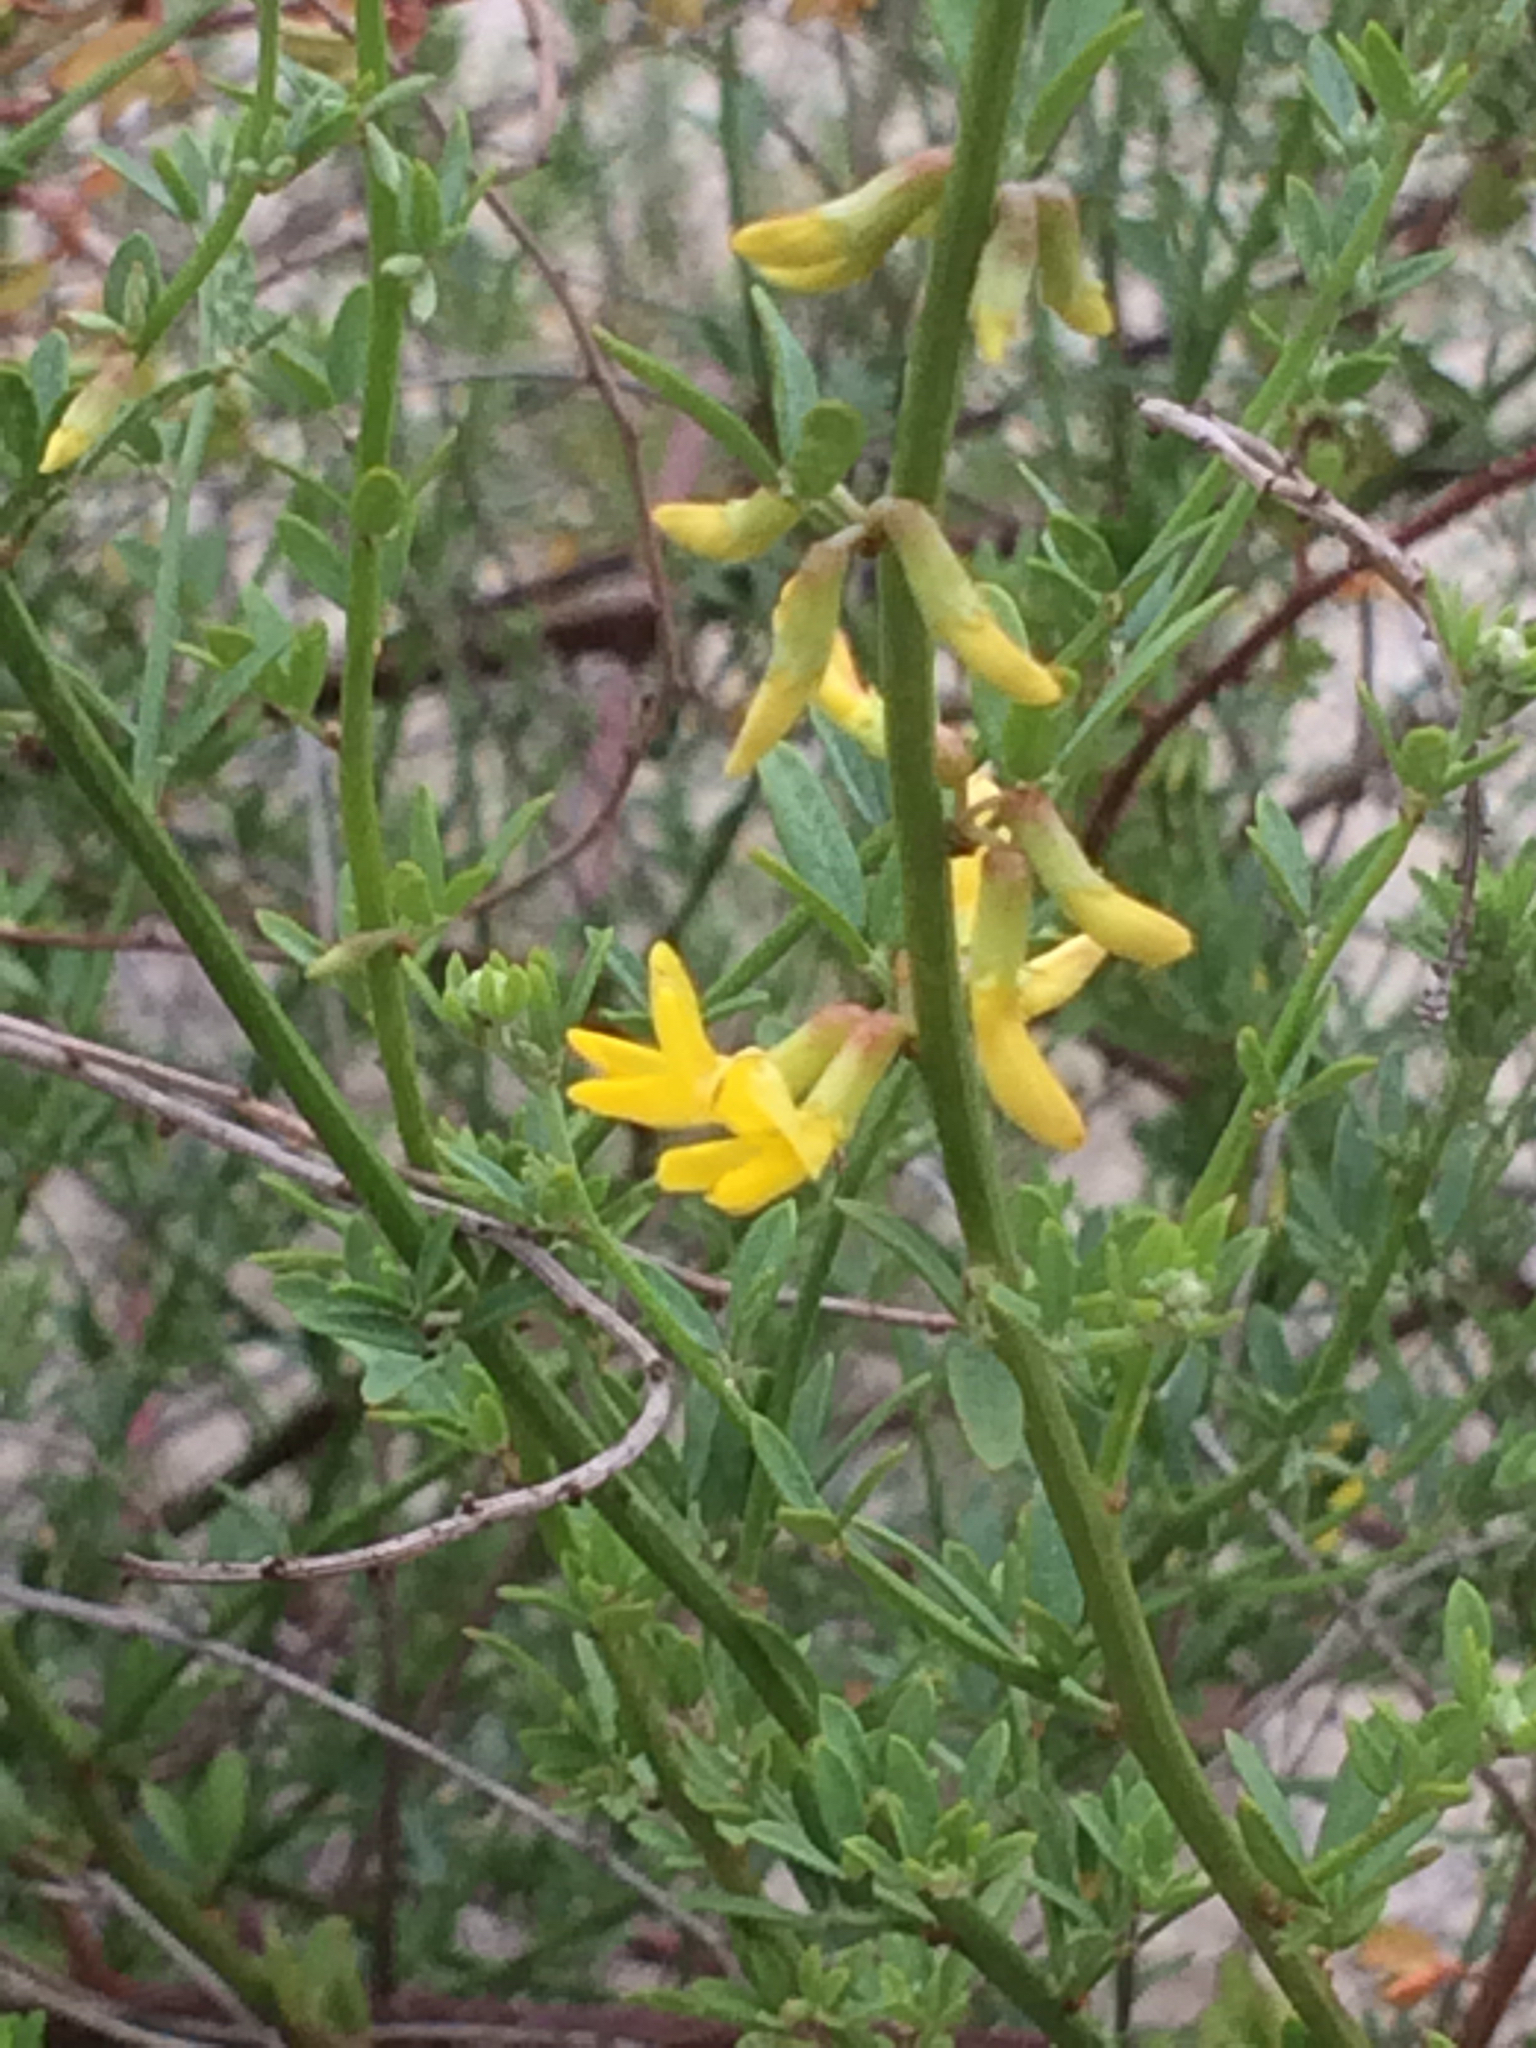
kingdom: Plantae
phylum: Tracheophyta
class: Magnoliopsida
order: Fabales
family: Fabaceae
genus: Acmispon
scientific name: Acmispon glaber
